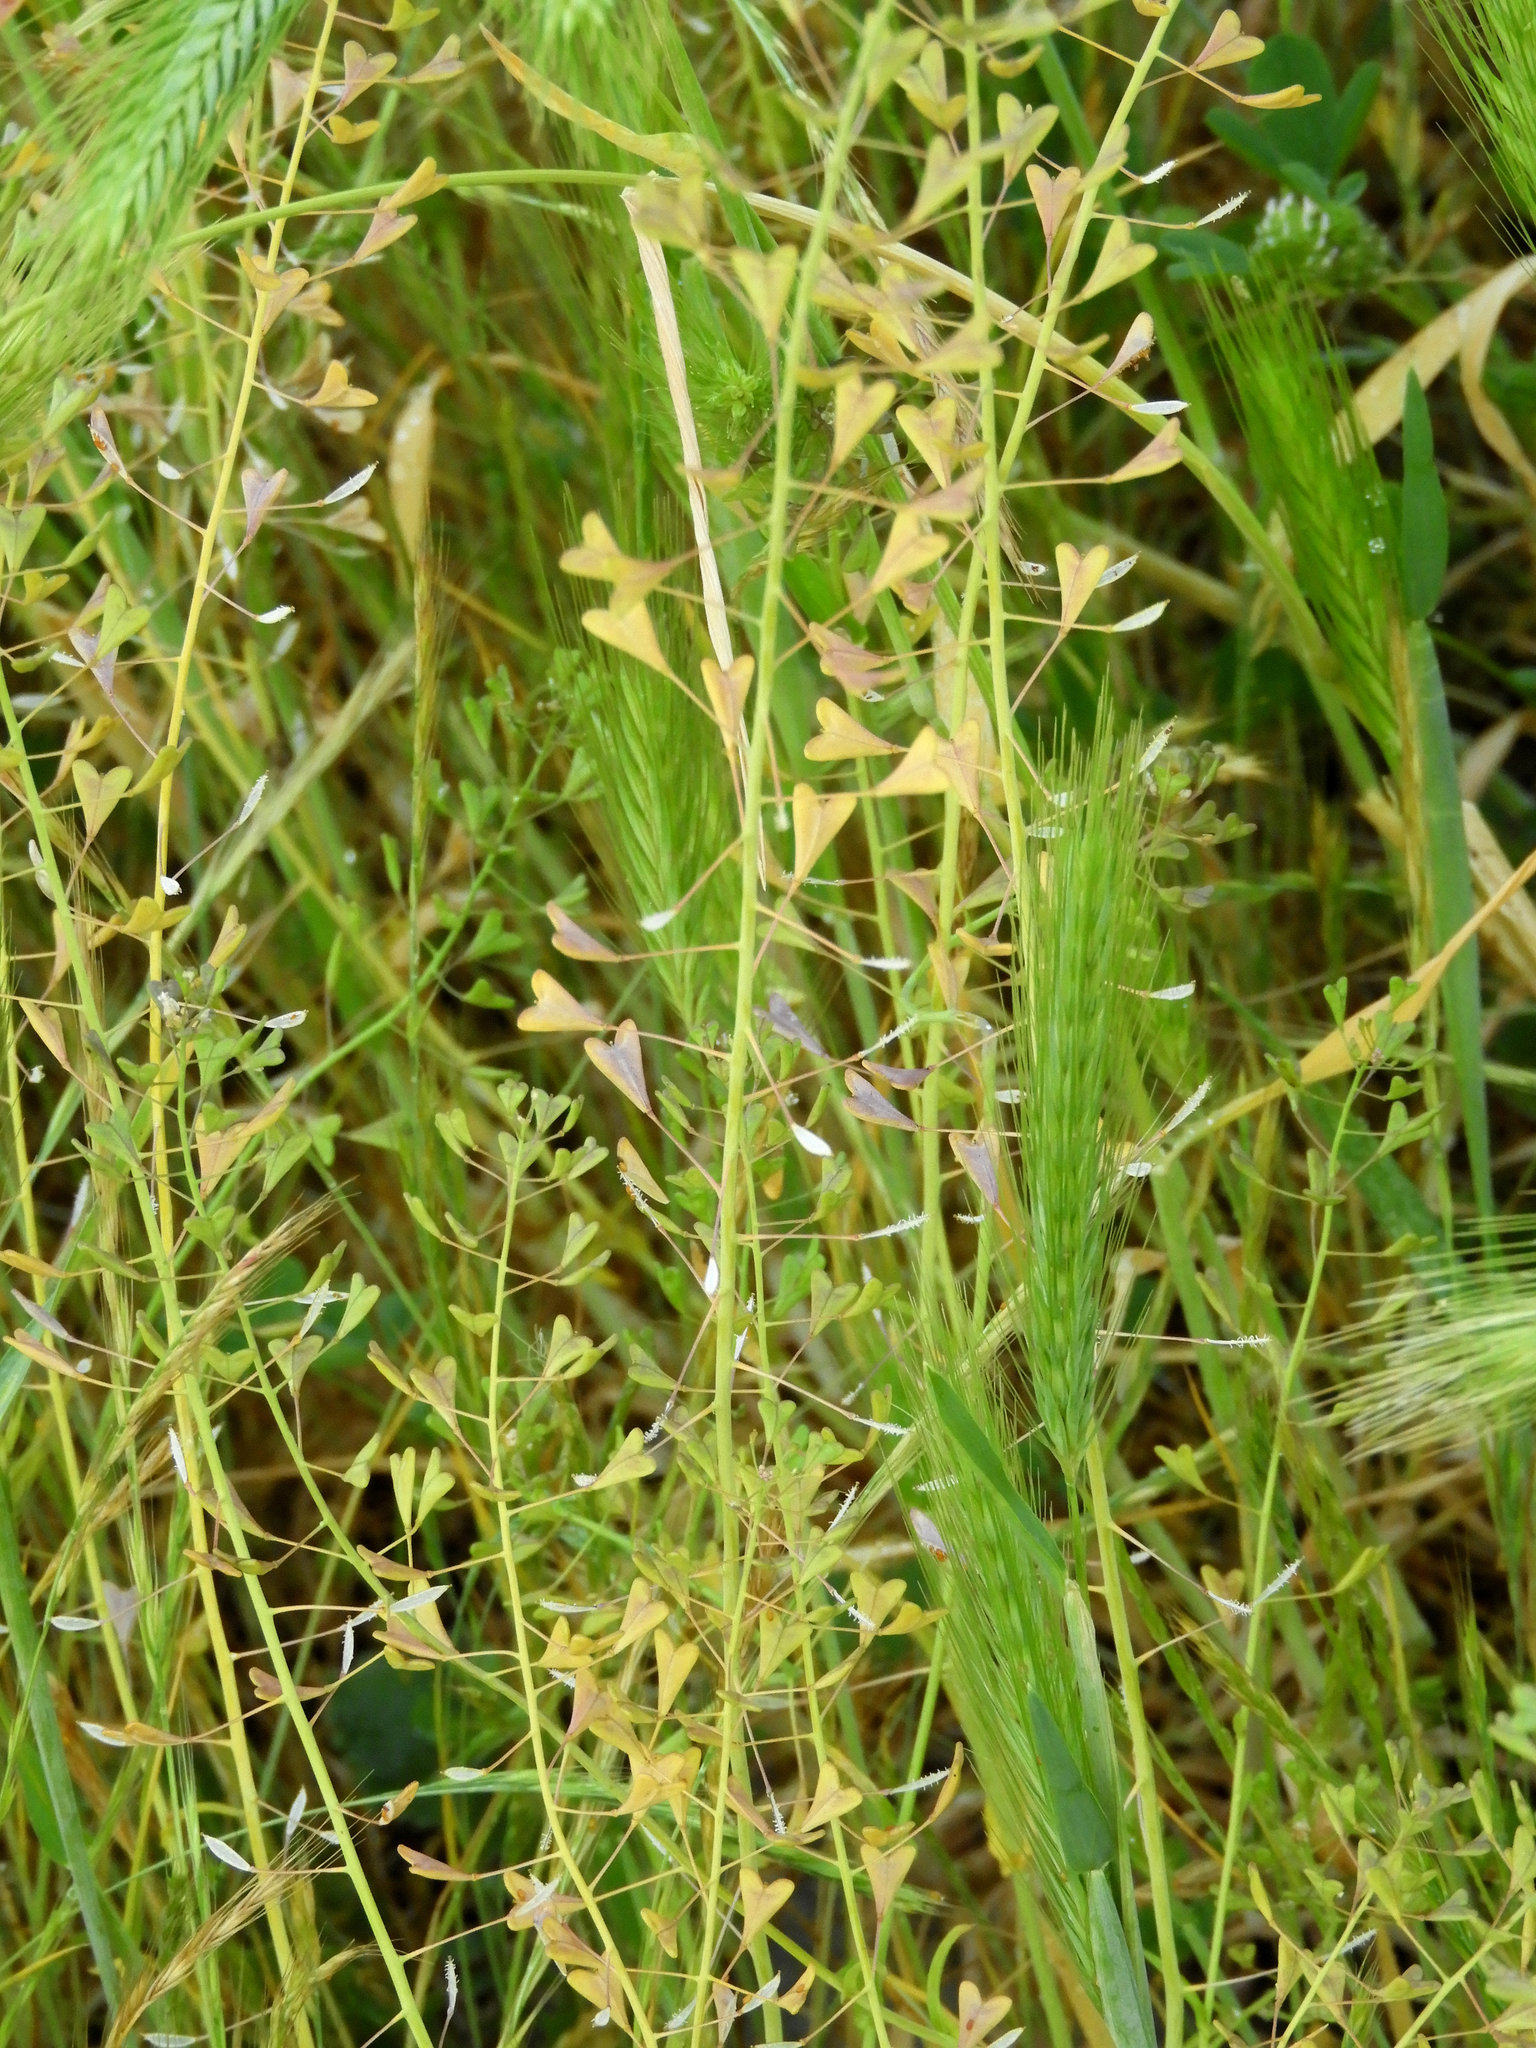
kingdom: Plantae
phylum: Tracheophyta
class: Magnoliopsida
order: Brassicales
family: Brassicaceae
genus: Capsella
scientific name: Capsella bursa-pastoris
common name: Shepherd's purse
